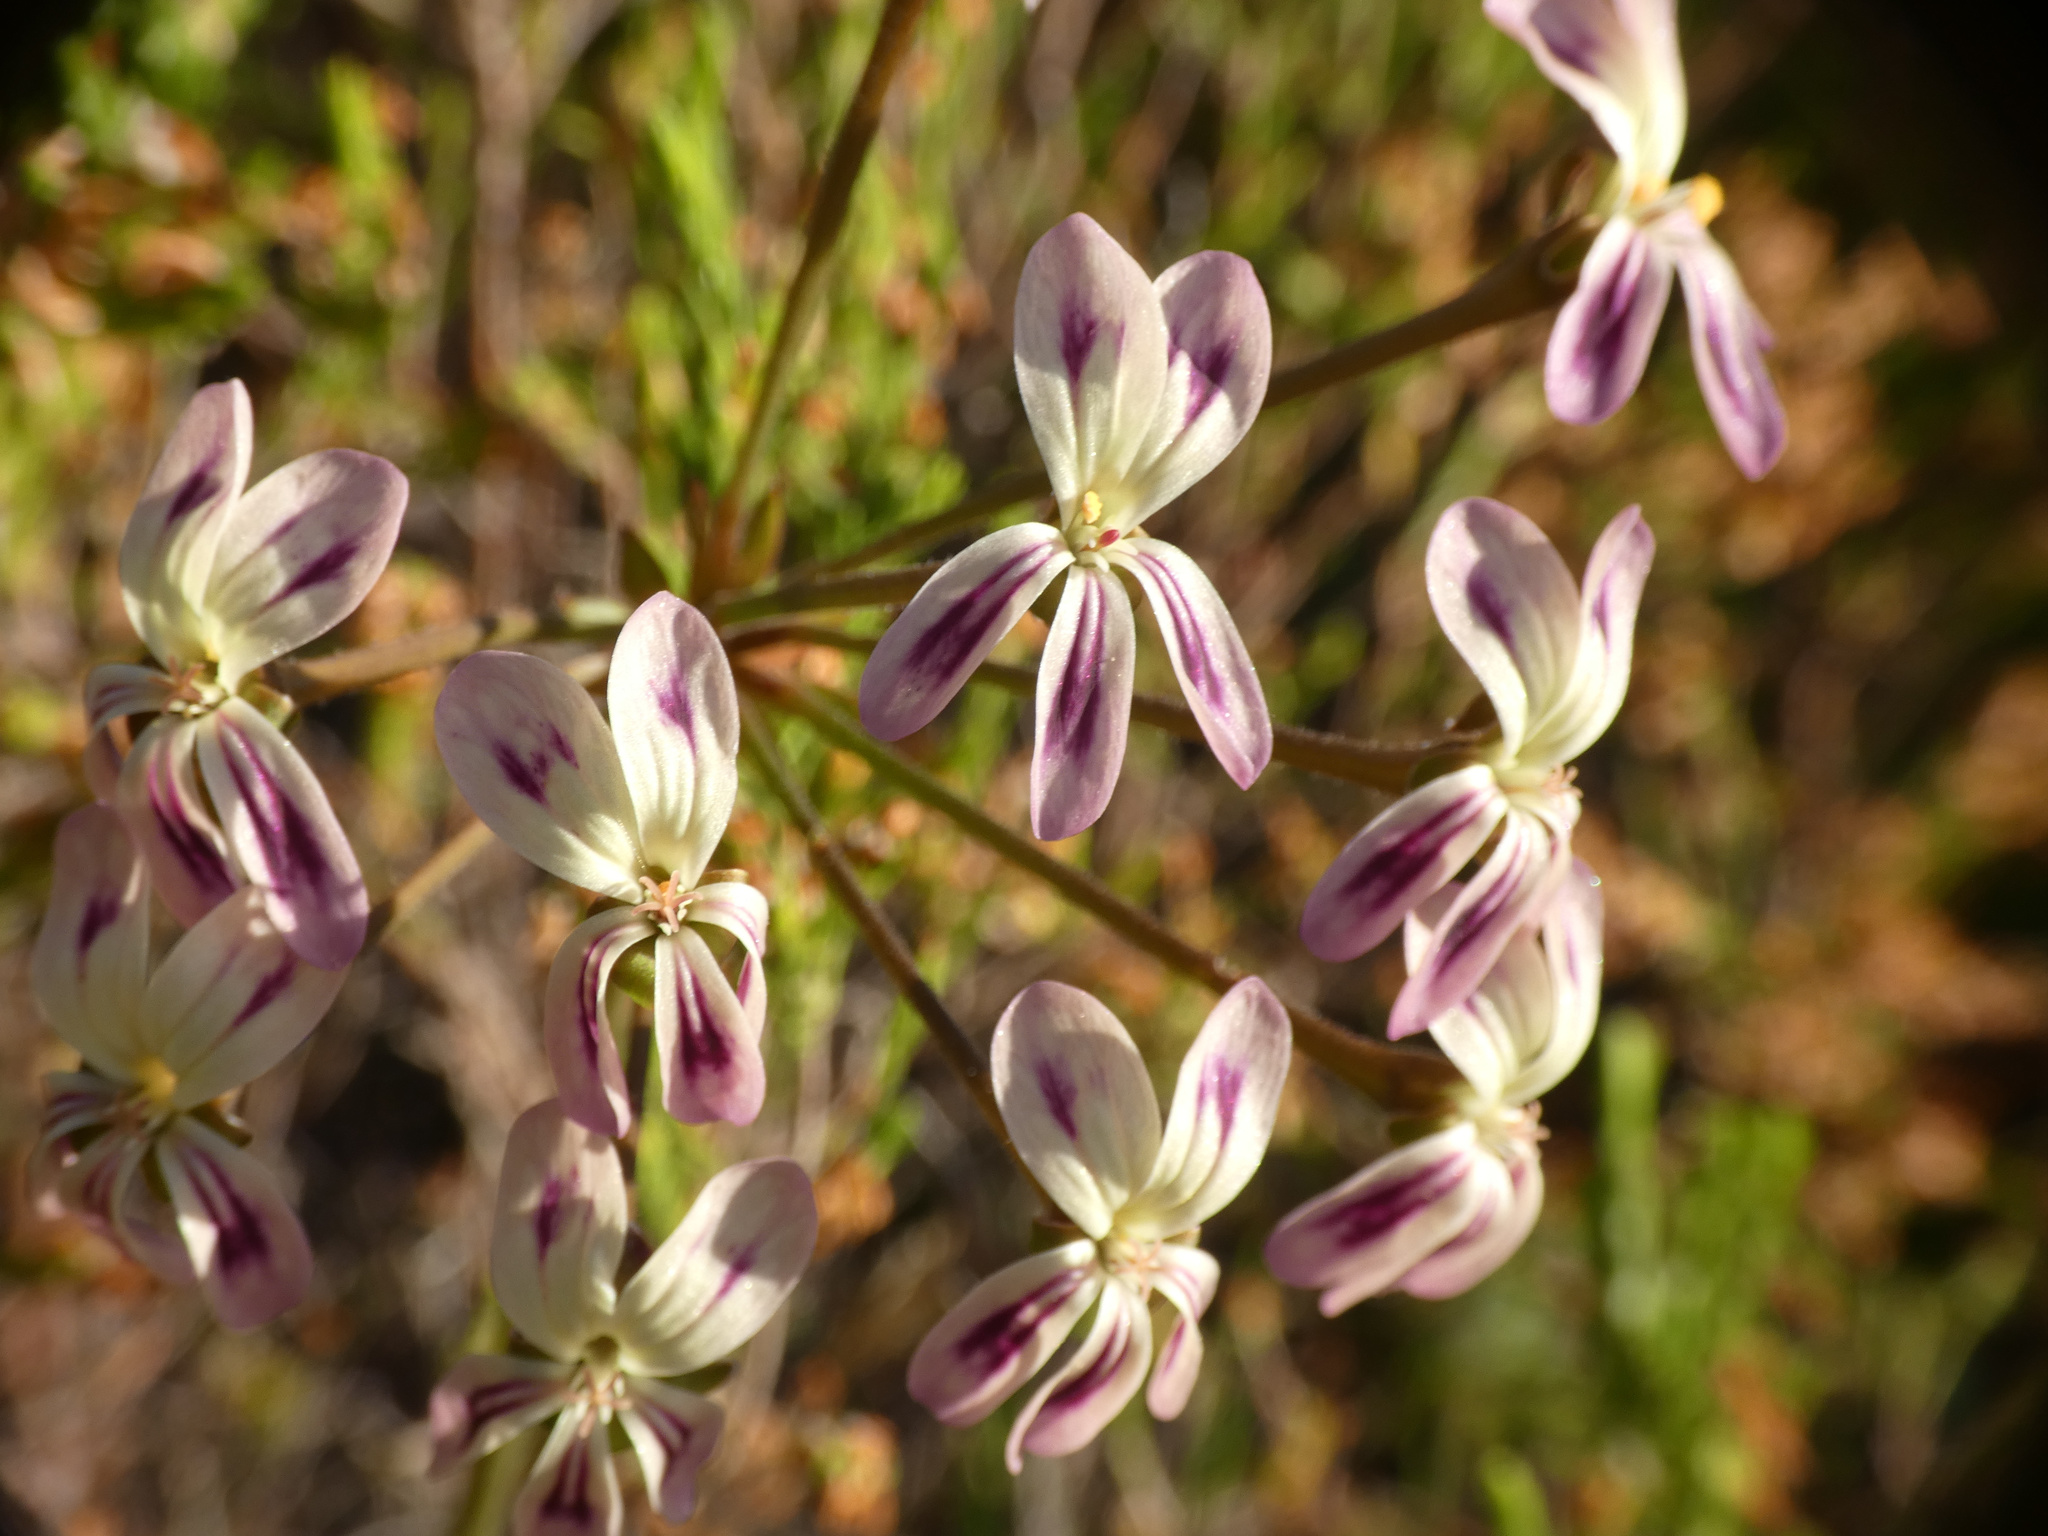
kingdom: Plantae
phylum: Tracheophyta
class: Magnoliopsida
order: Geraniales
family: Geraniaceae
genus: Pelargonium
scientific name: Pelargonium triste
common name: Night-scent pelargonium
